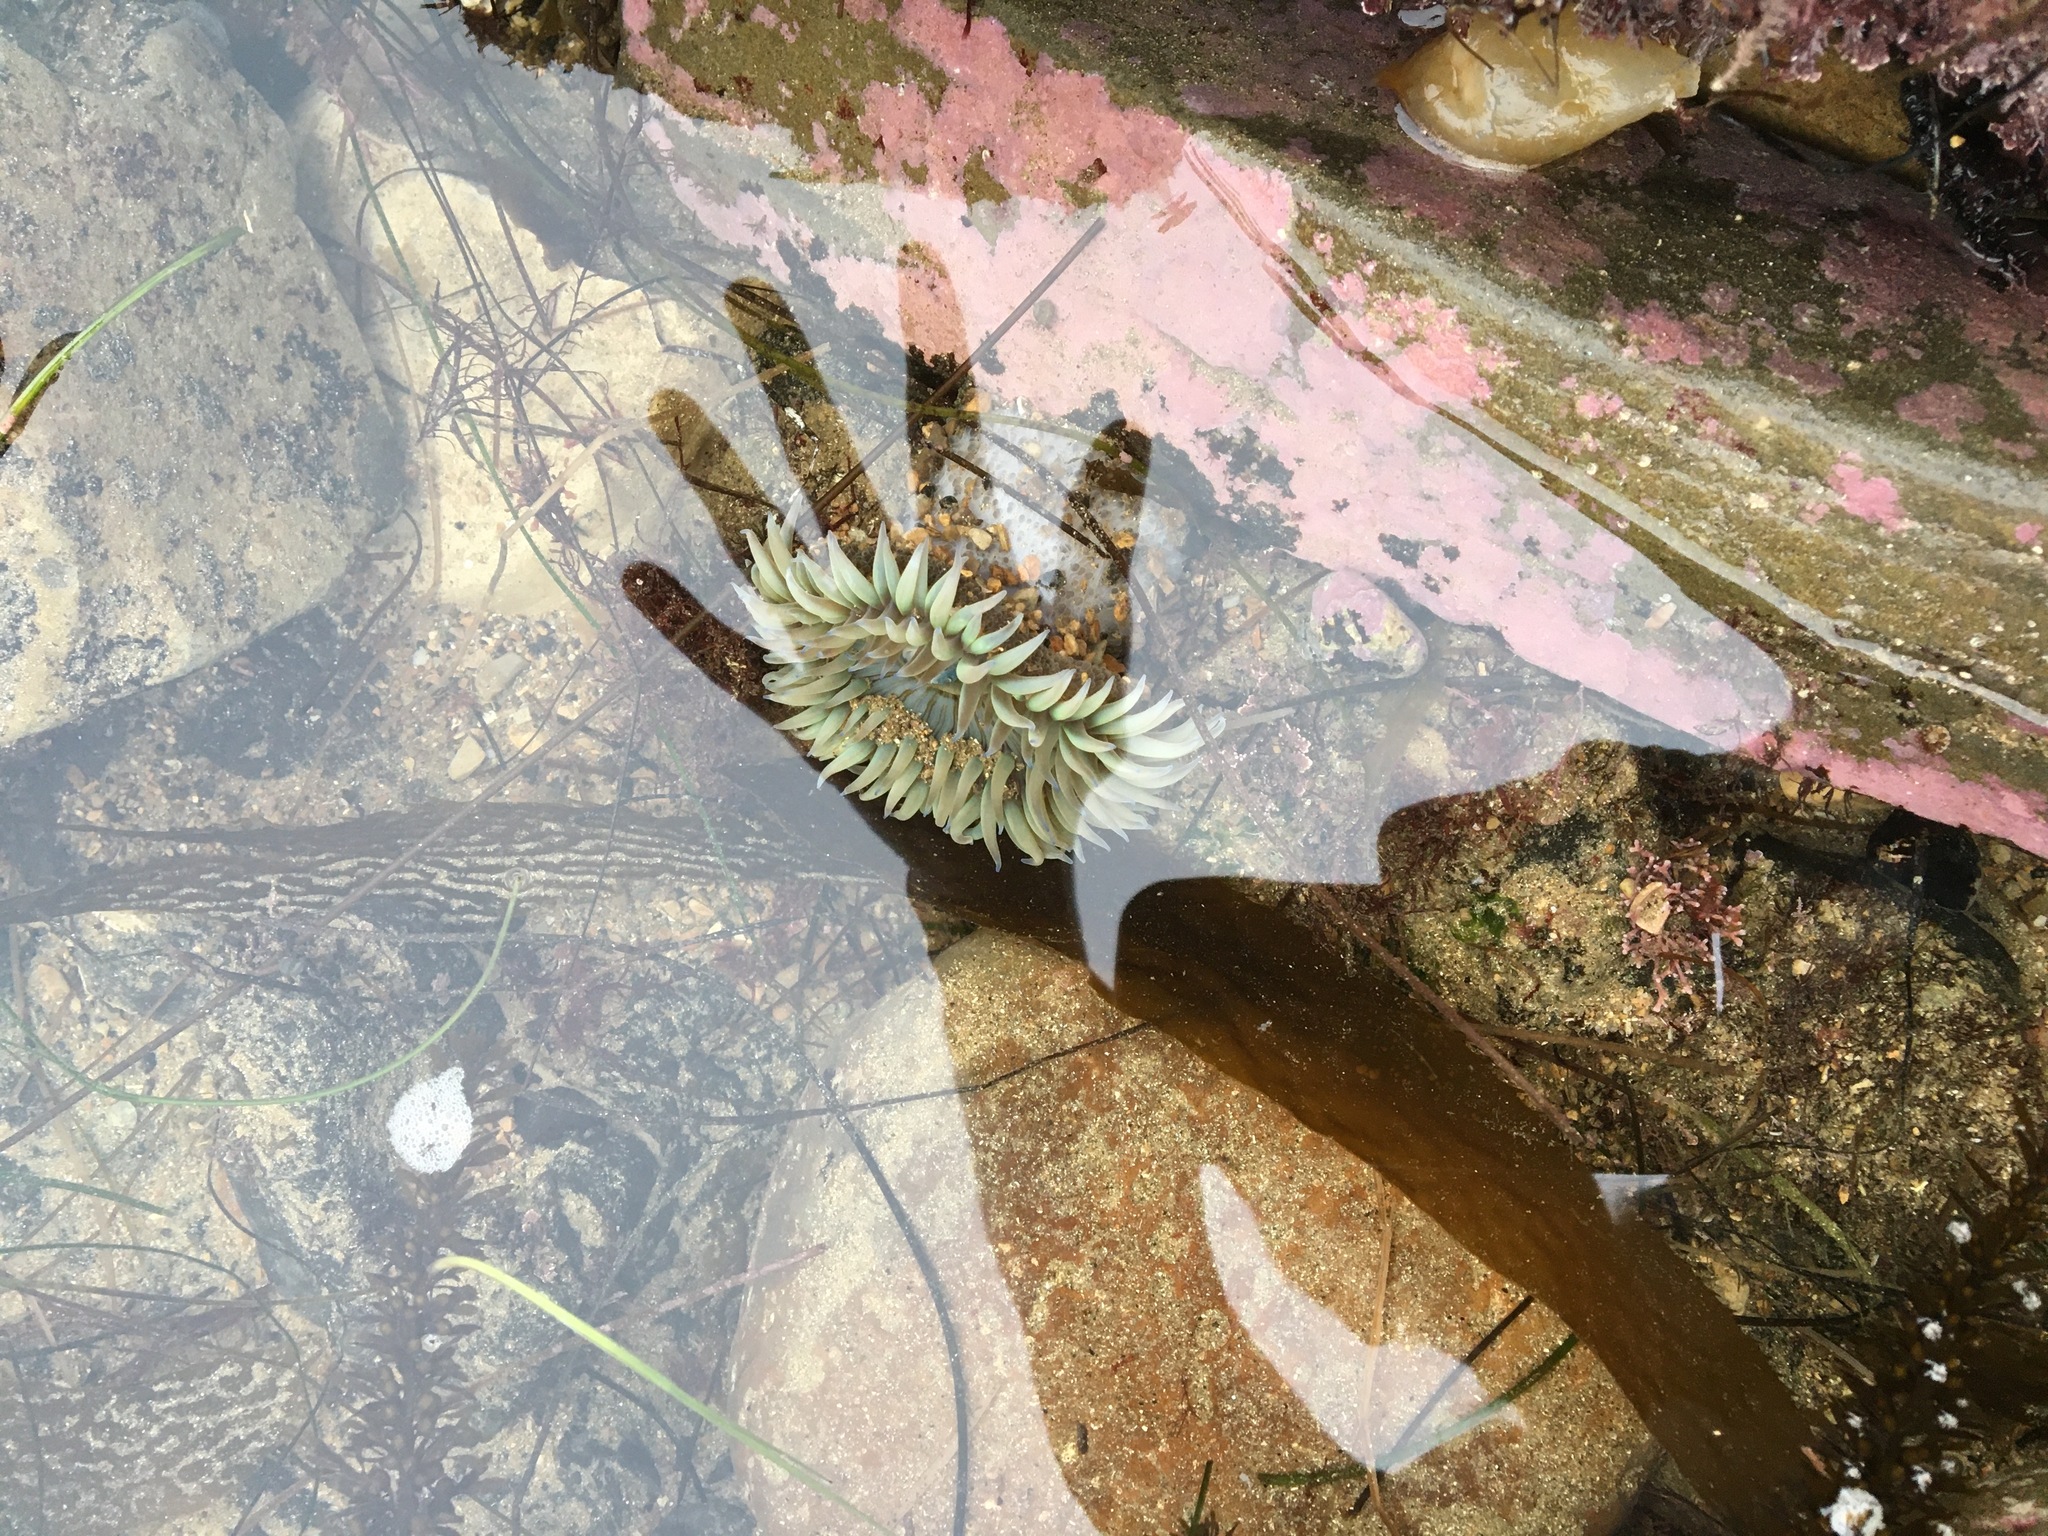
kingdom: Animalia
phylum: Cnidaria
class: Anthozoa
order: Actiniaria
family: Actiniidae
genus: Anthopleura
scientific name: Anthopleura sola
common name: Sun anemone
